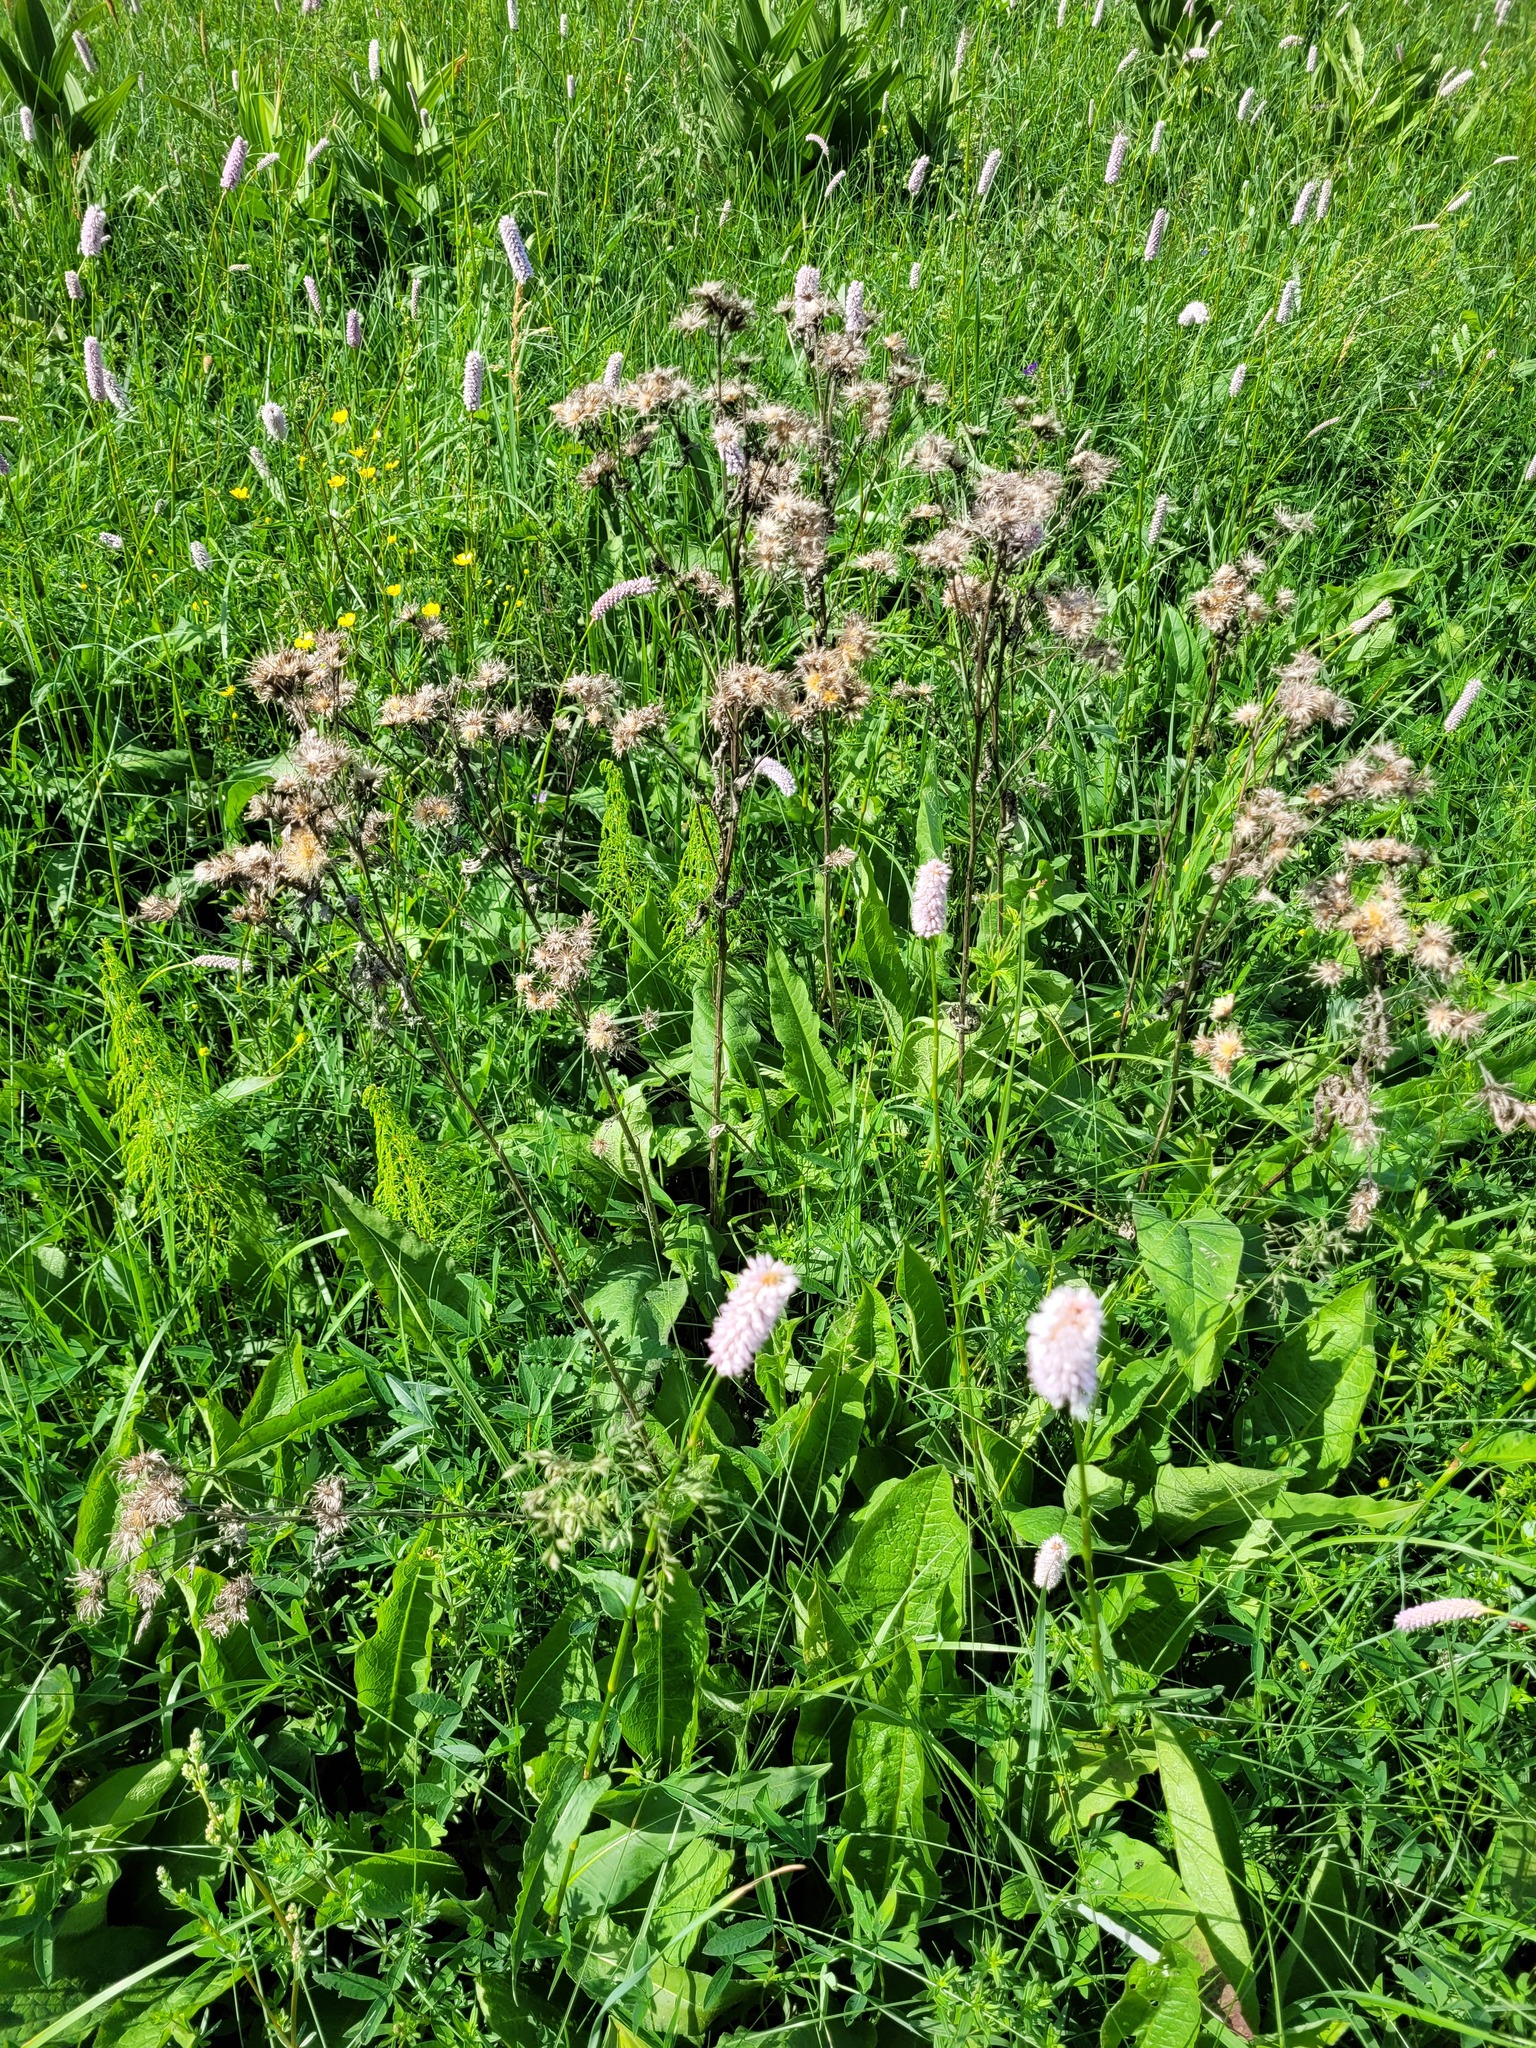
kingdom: Plantae
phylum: Tracheophyta
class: Magnoliopsida
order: Asterales
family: Asteraceae
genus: Serratula
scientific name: Serratula tinctoria
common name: Saw-wort
